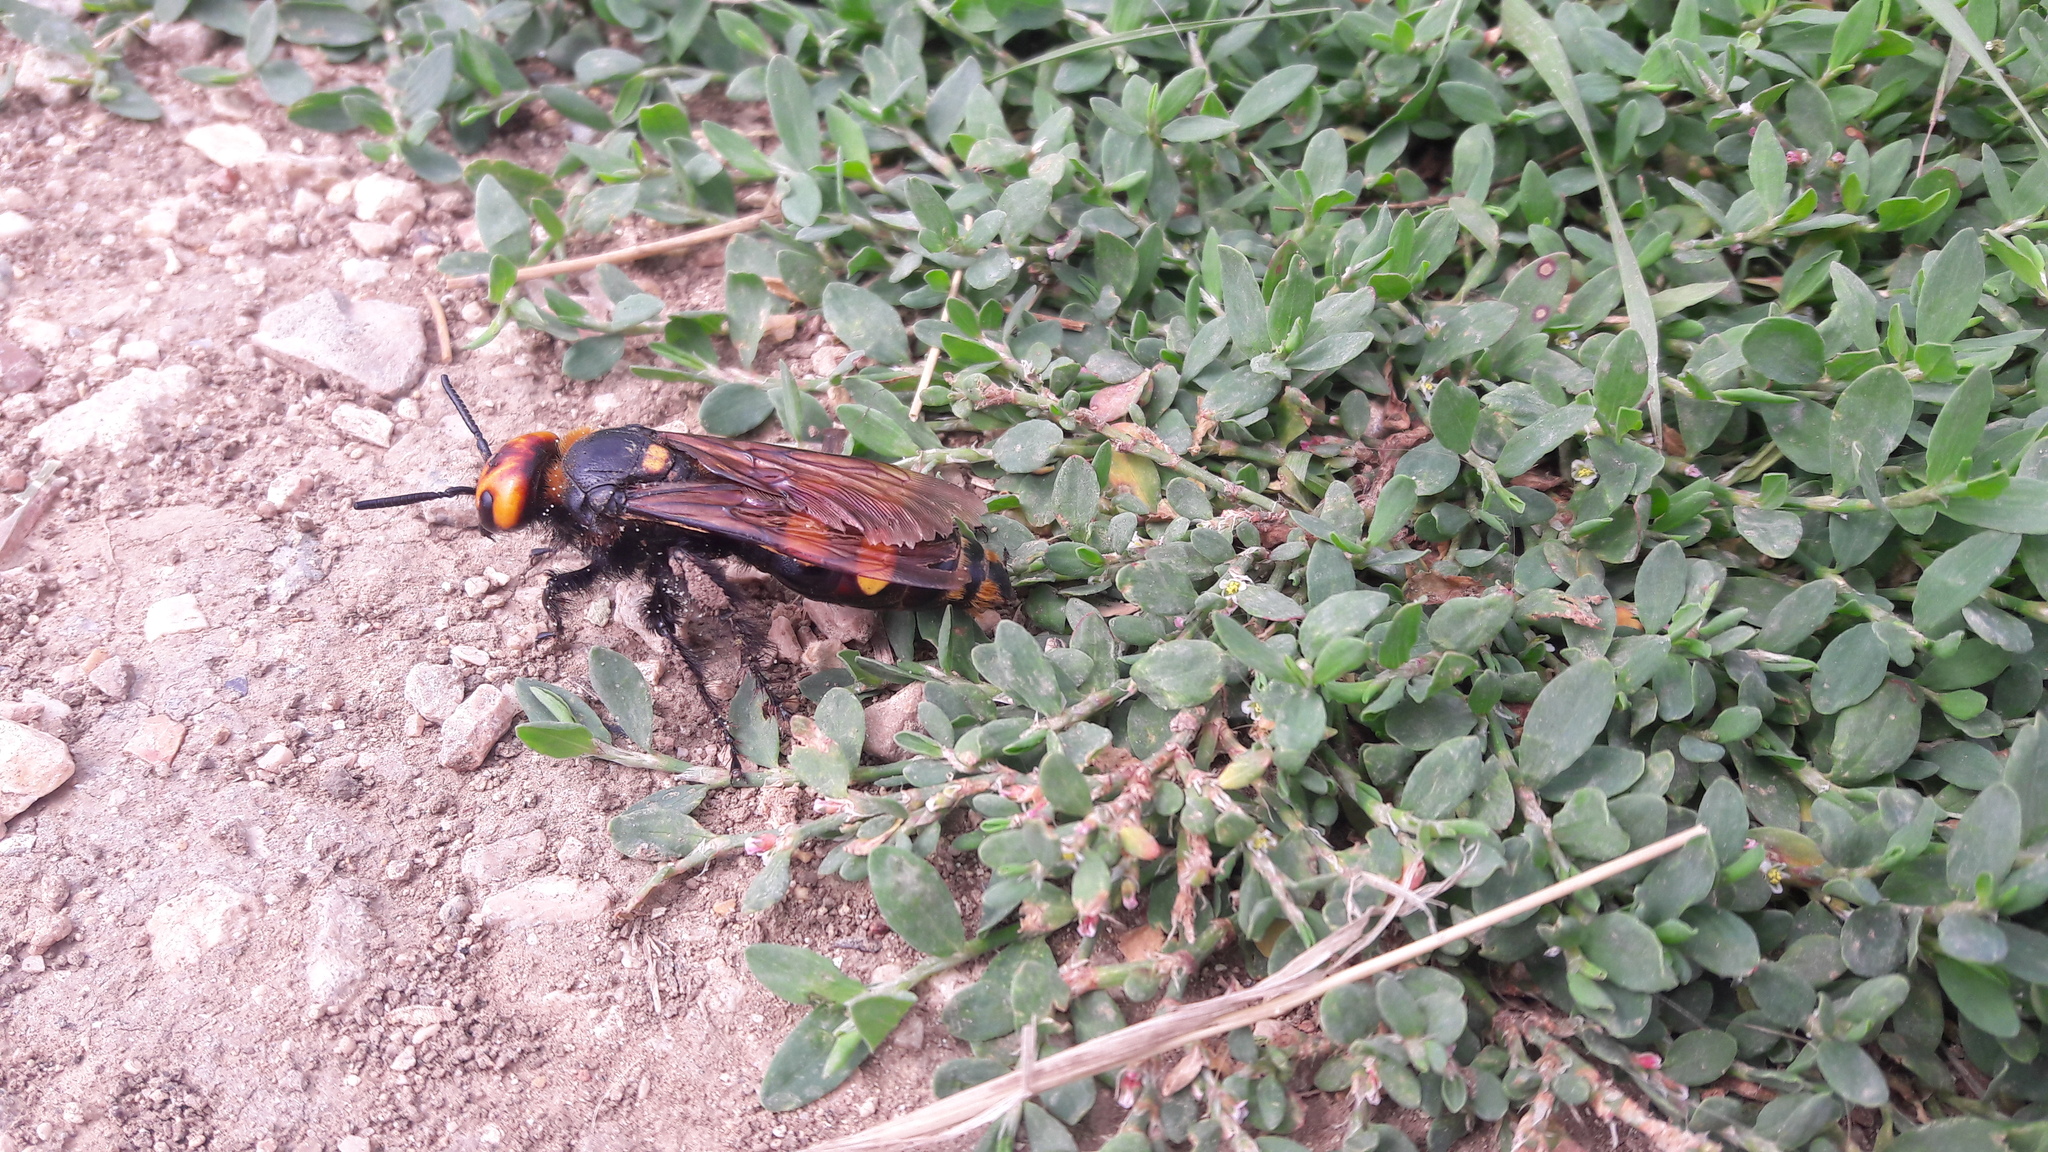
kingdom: Animalia
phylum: Arthropoda
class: Insecta
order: Hymenoptera
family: Scoliidae
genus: Megascolia
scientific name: Megascolia maculata
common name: Mammoth wasp
